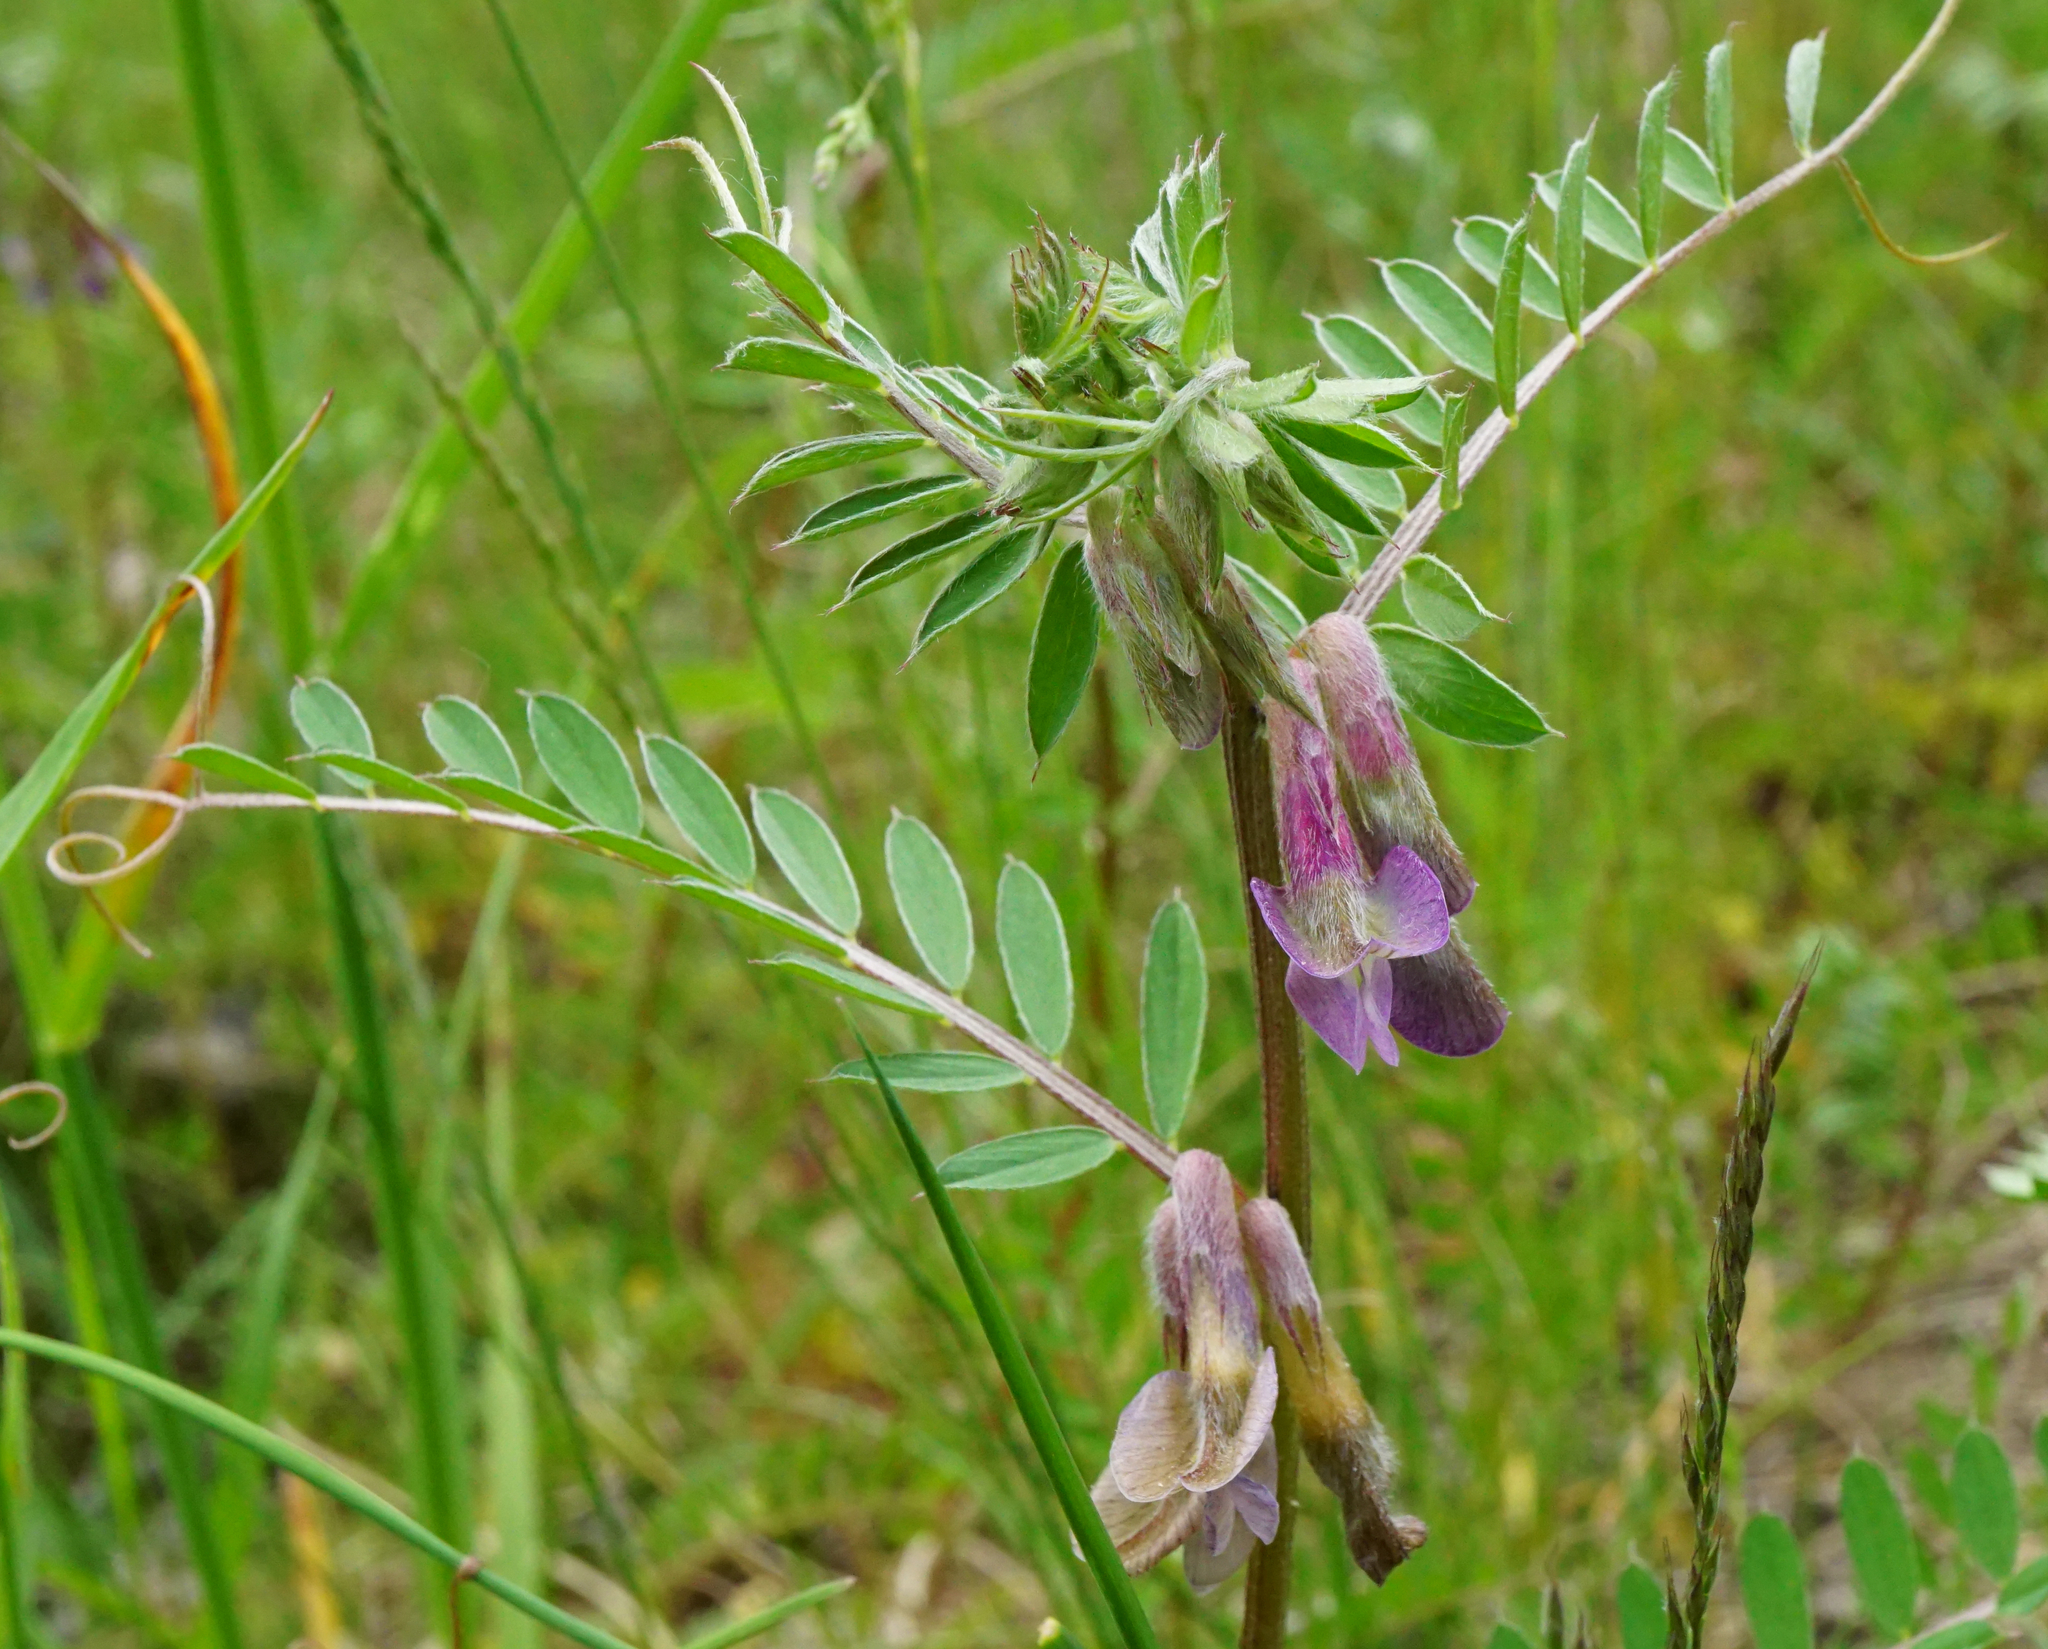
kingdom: Plantae
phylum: Tracheophyta
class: Magnoliopsida
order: Fabales
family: Fabaceae
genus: Vicia
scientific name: Vicia pannonica
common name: Hungarian vetch
